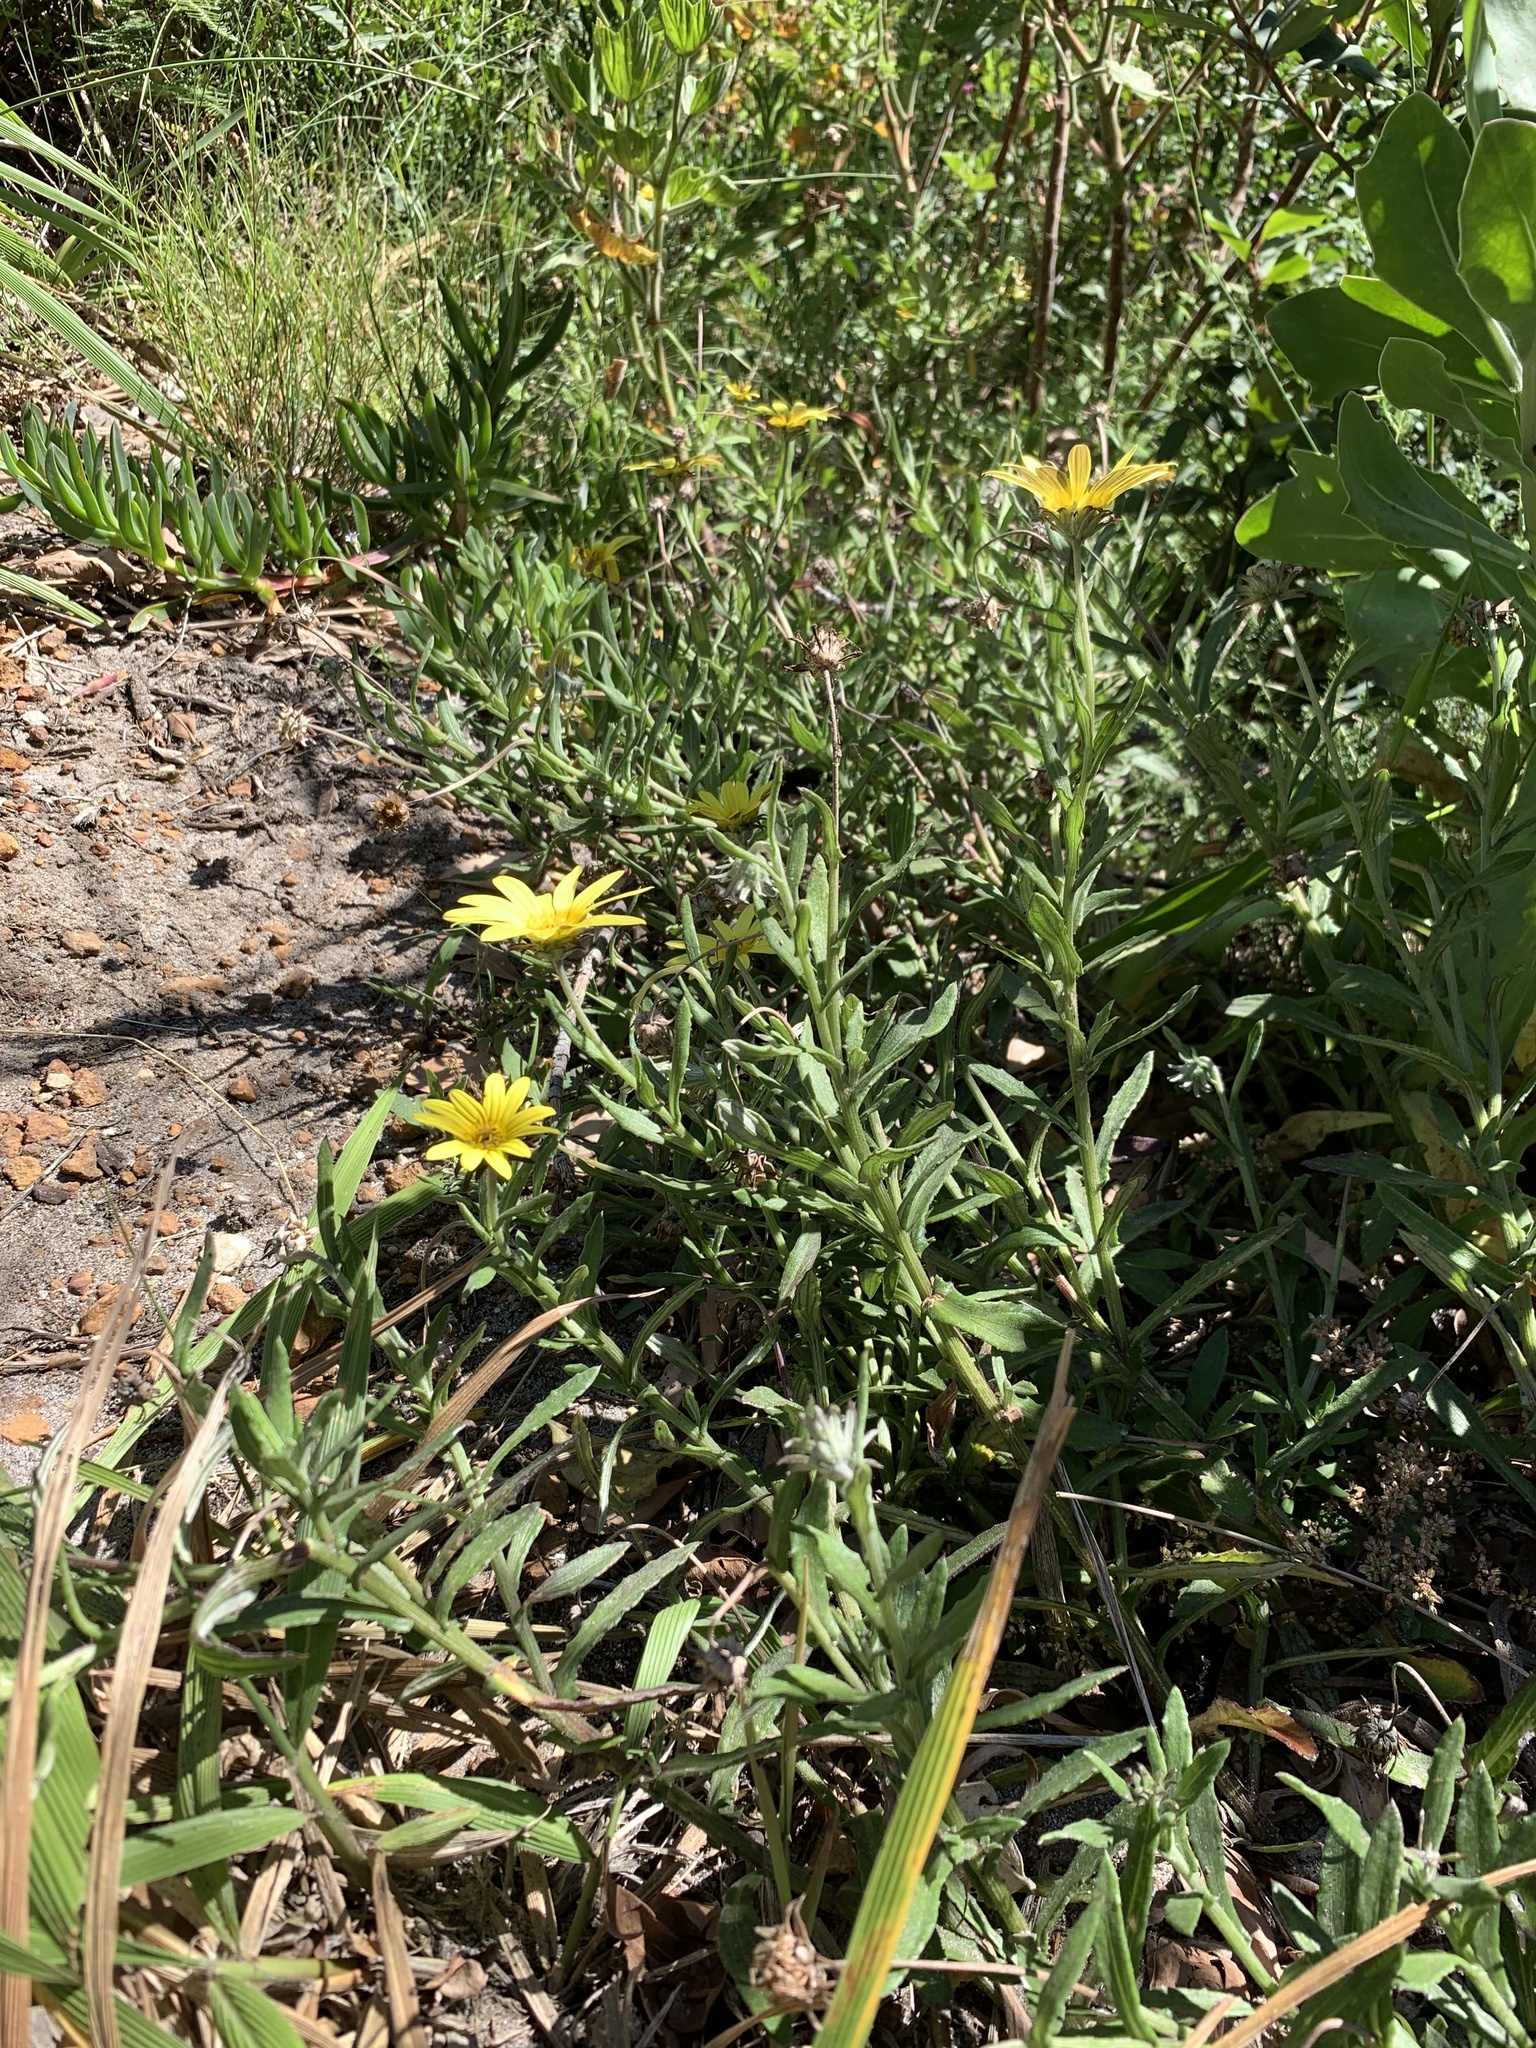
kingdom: Plantae
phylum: Tracheophyta
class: Magnoliopsida
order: Asterales
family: Asteraceae
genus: Arctotis
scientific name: Arctotis scabra
